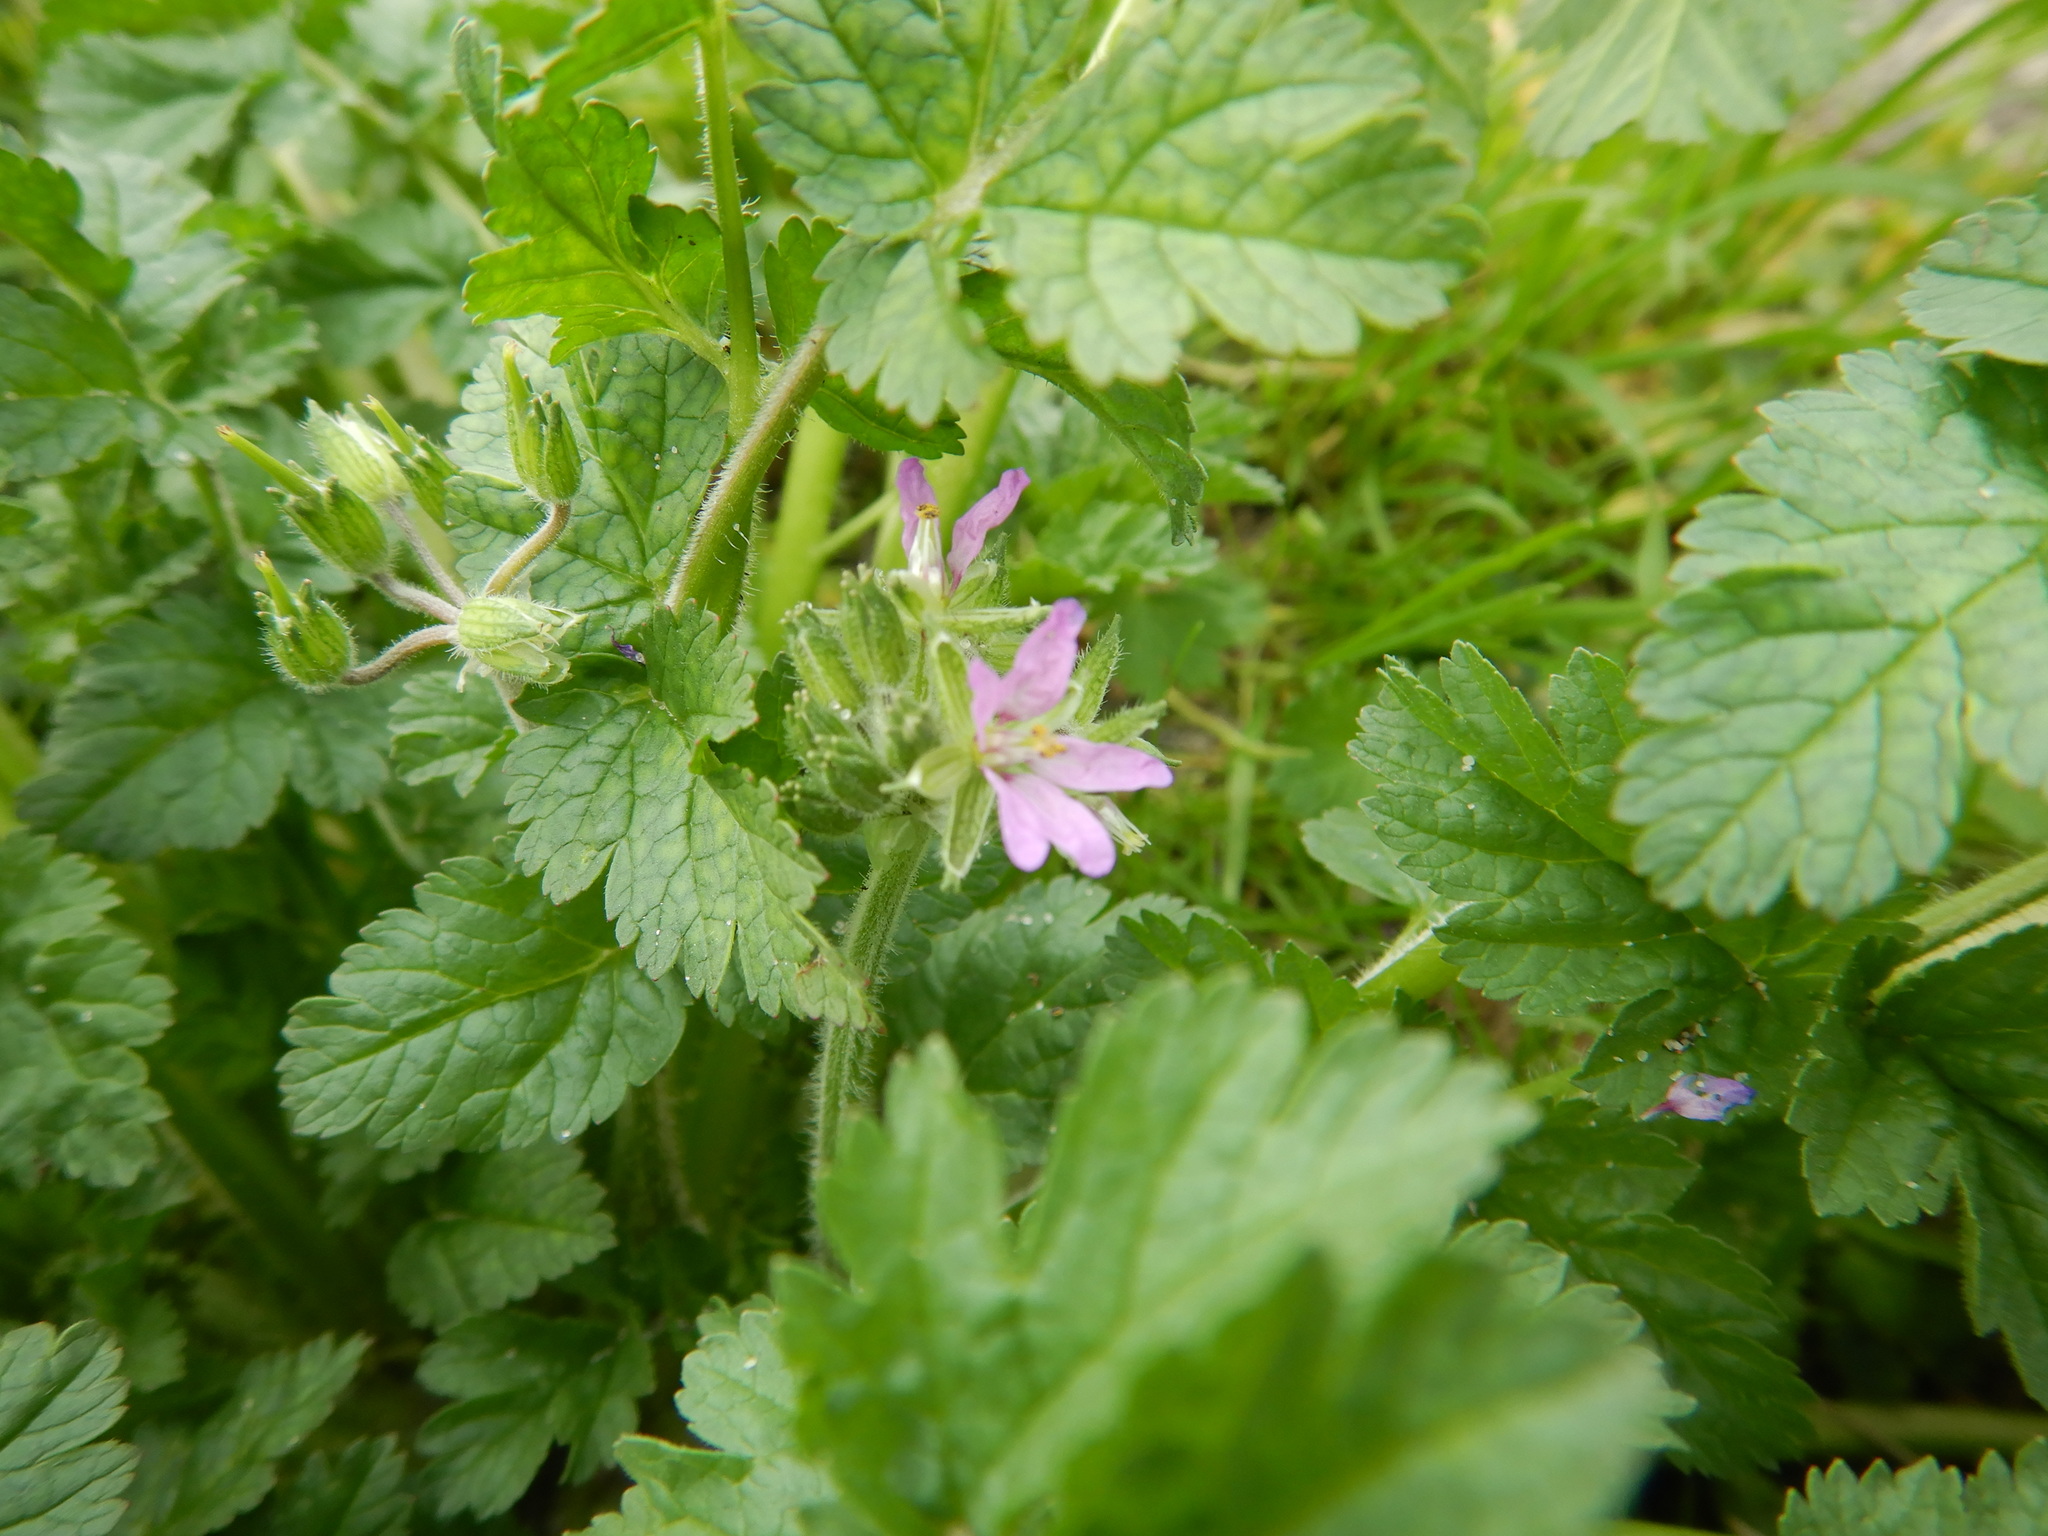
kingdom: Plantae
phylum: Tracheophyta
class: Magnoliopsida
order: Geraniales
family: Geraniaceae
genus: Erodium
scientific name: Erodium moschatum
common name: Musk stork's-bill
